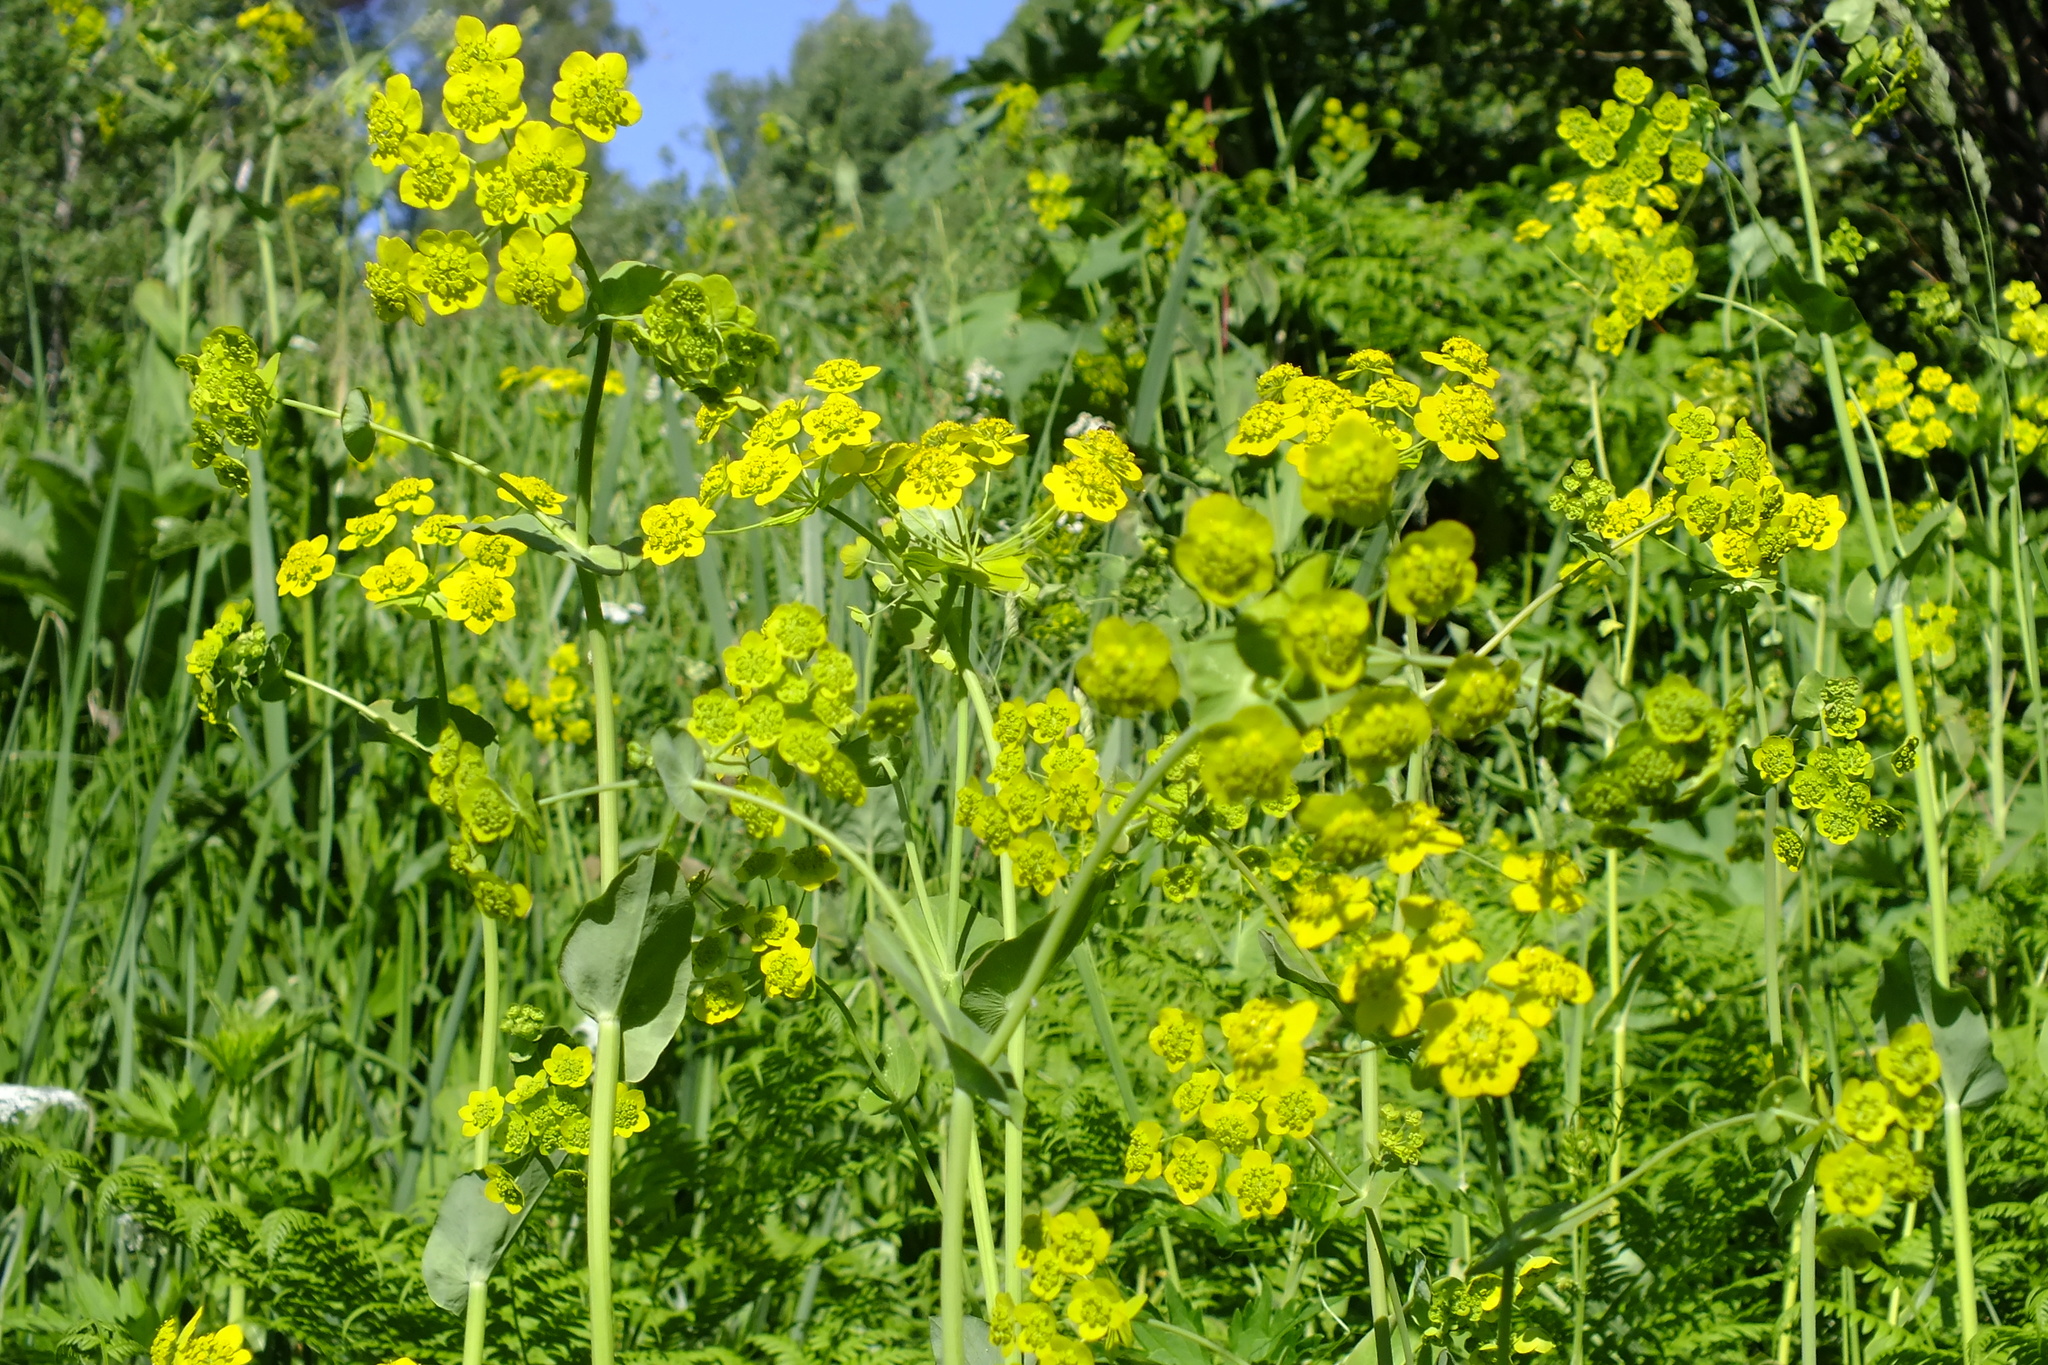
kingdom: Plantae
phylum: Tracheophyta
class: Magnoliopsida
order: Apiales
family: Apiaceae
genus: Bupleurum
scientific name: Bupleurum aureum
